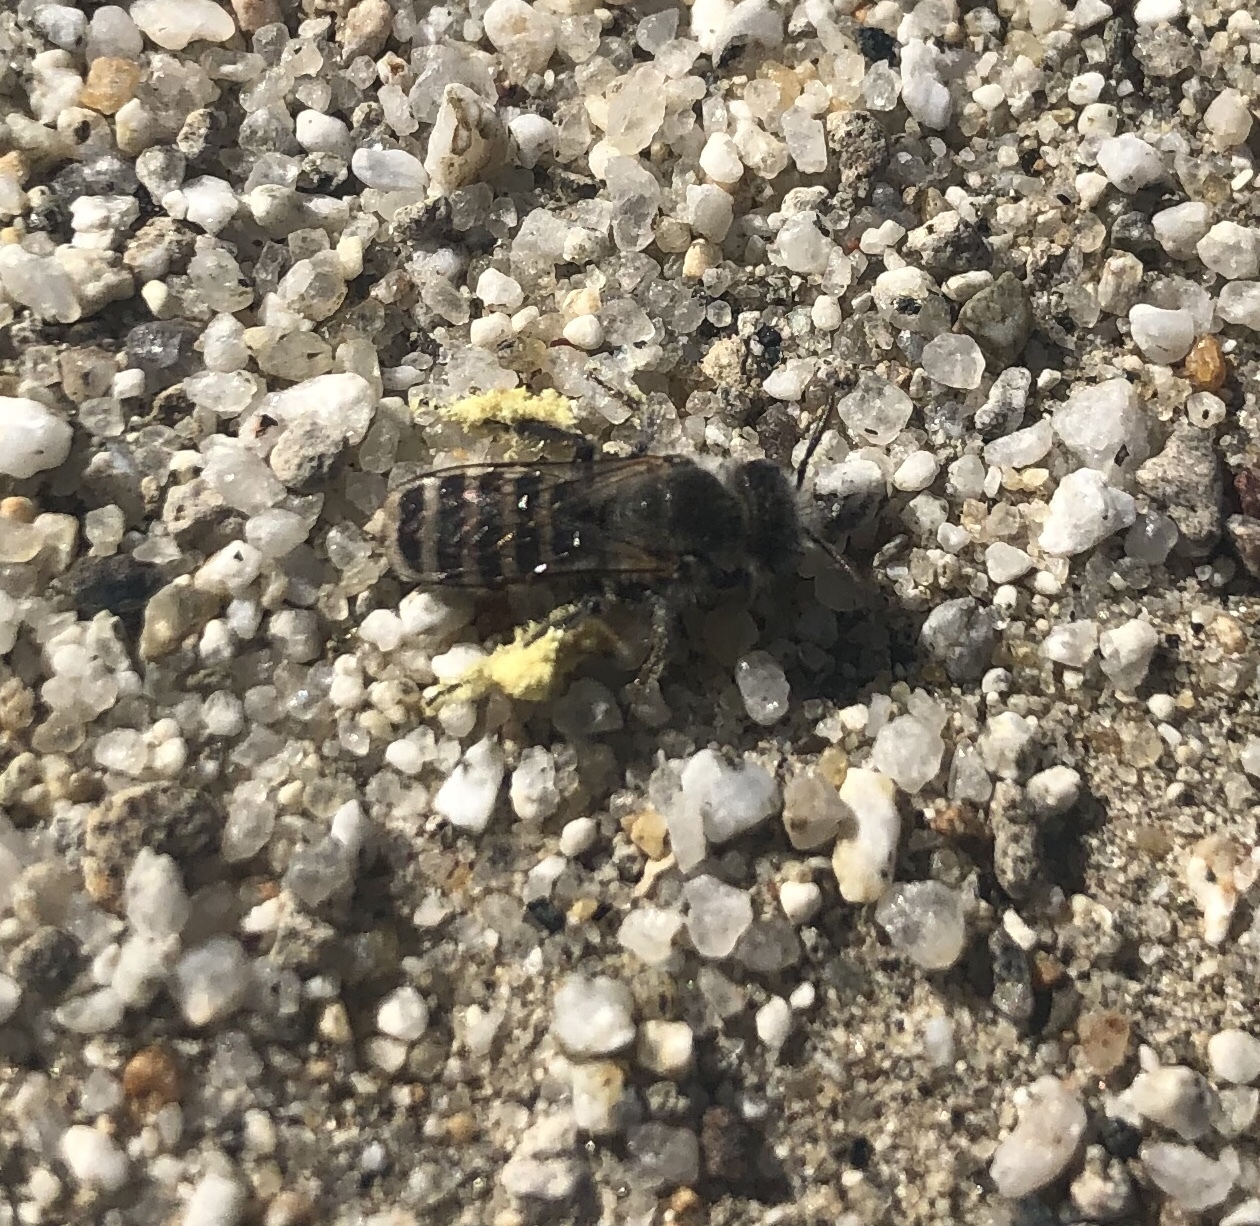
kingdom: Animalia
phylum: Arthropoda
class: Insecta
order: Hymenoptera
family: Melittidae
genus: Hesperapis
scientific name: Hesperapis
